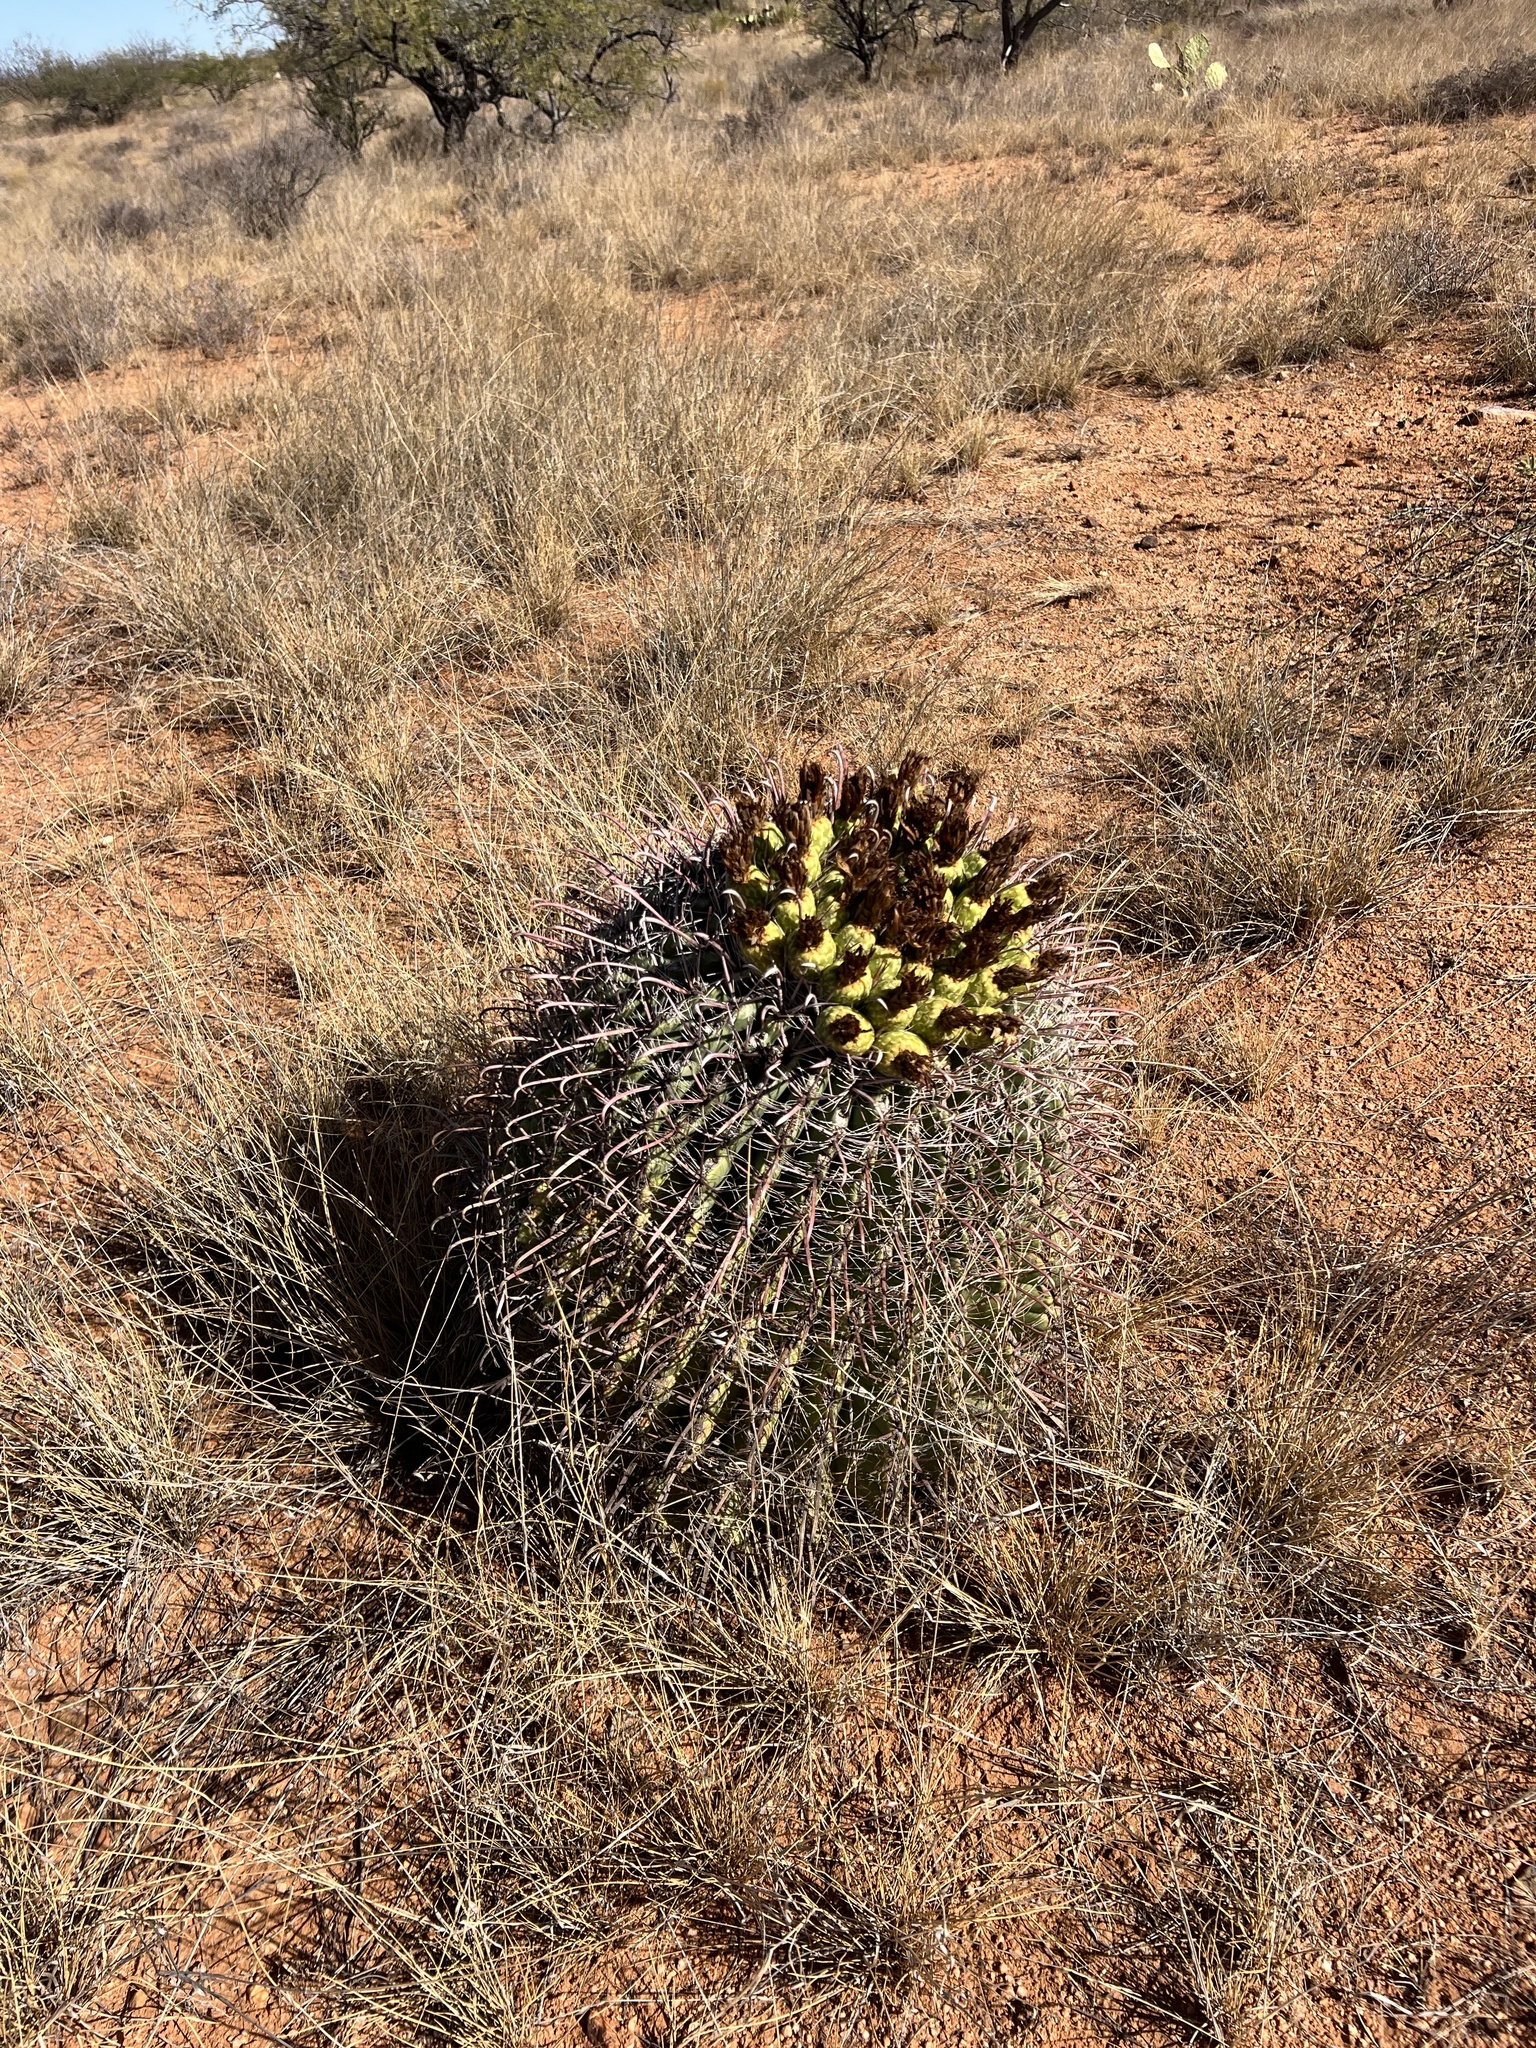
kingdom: Plantae
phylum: Tracheophyta
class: Magnoliopsida
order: Caryophyllales
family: Cactaceae
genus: Ferocactus
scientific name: Ferocactus wislizeni
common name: Candy barrel cactus
